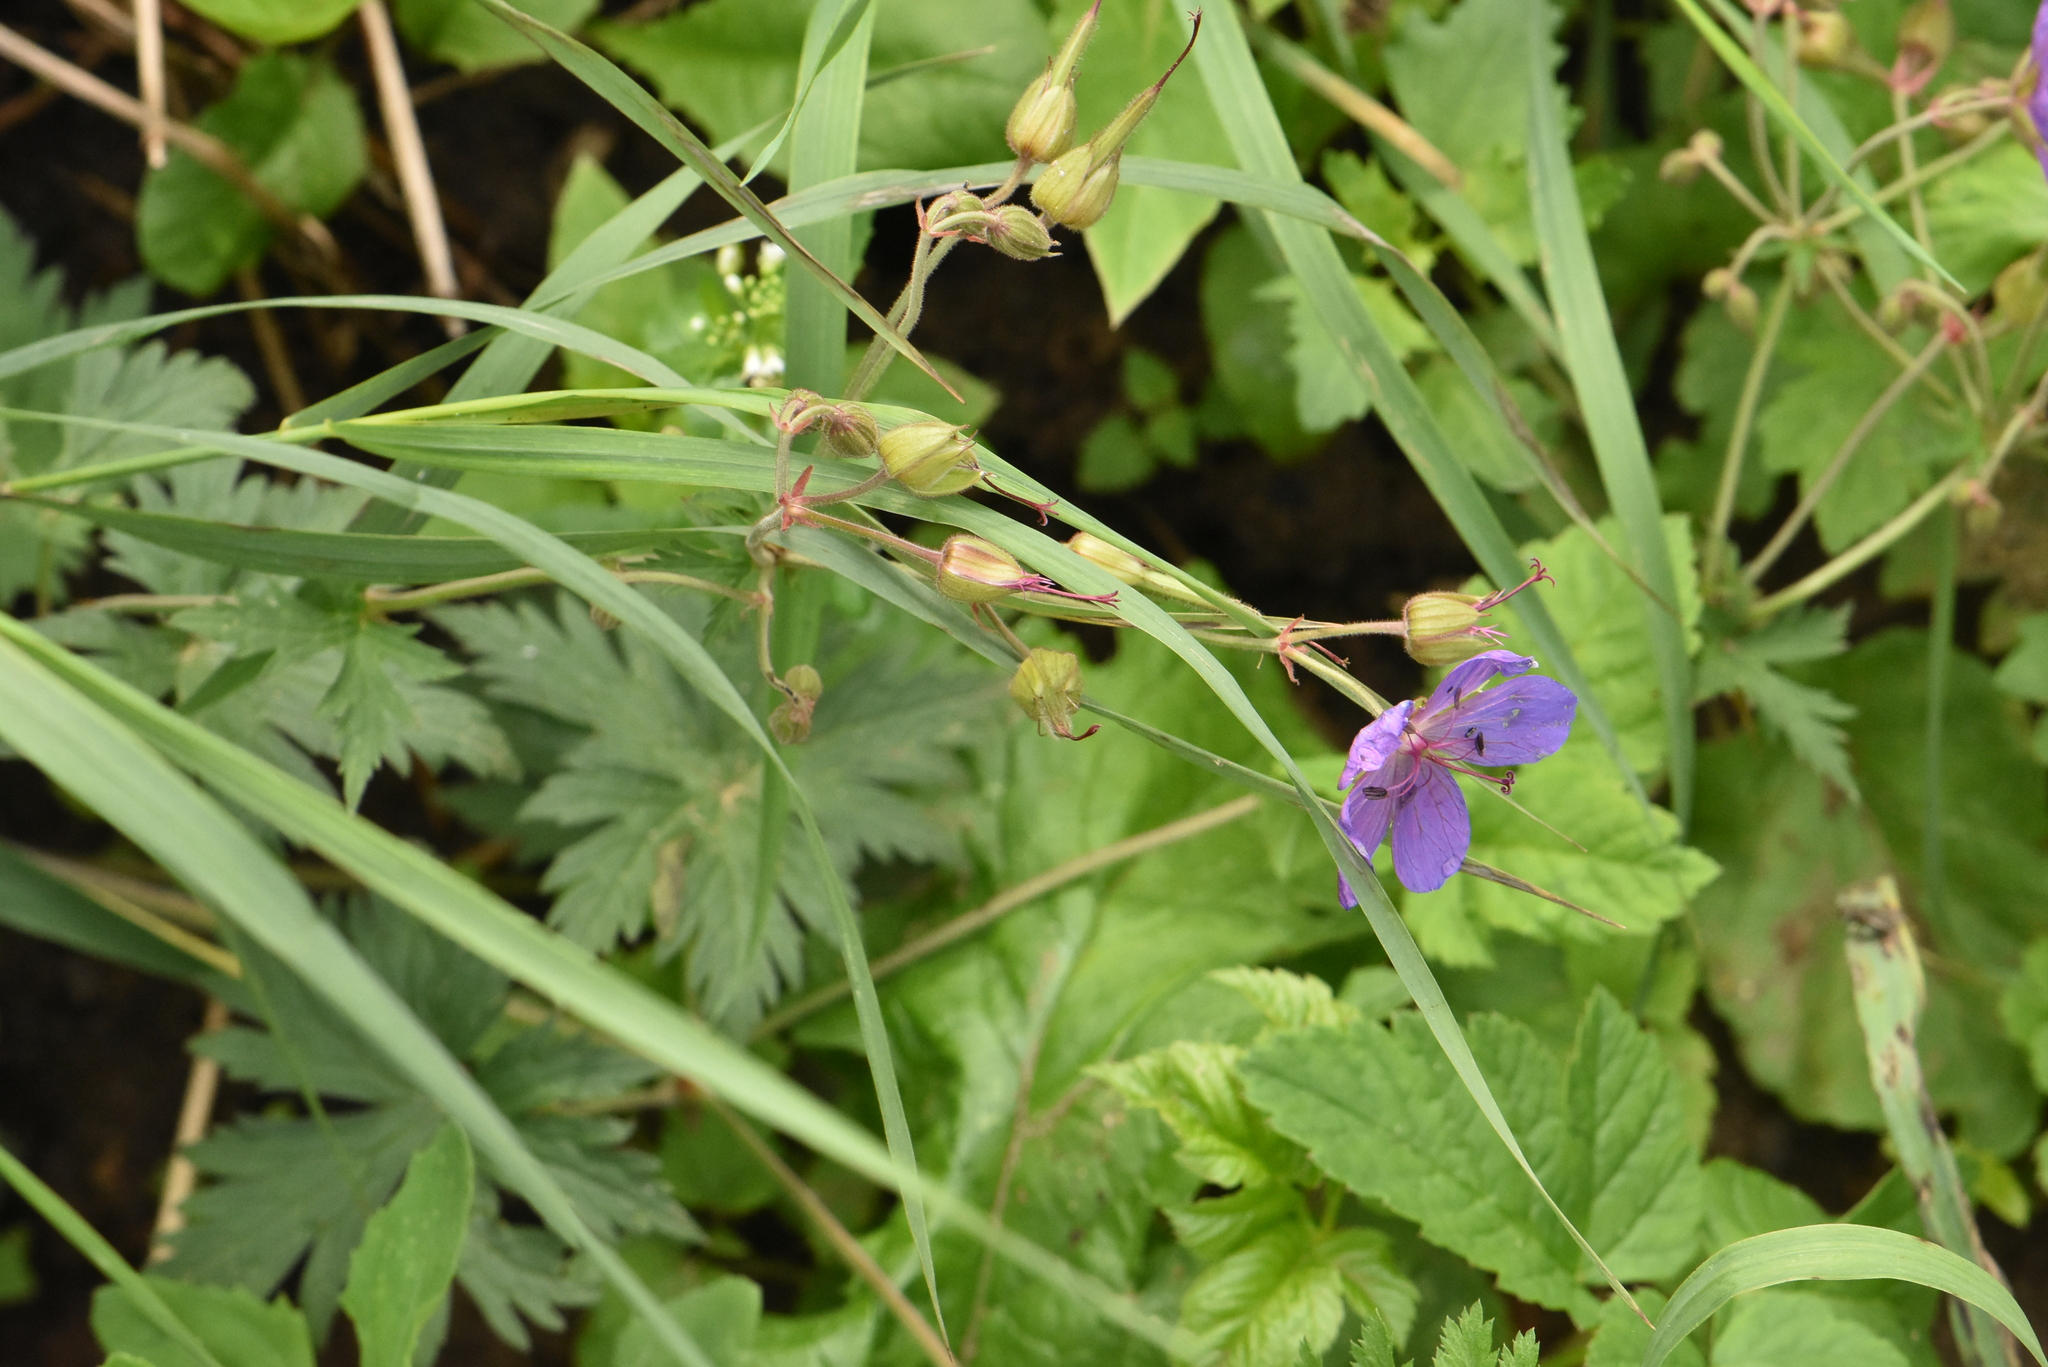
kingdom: Plantae
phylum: Tracheophyta
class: Magnoliopsida
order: Geraniales
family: Geraniaceae
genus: Geranium
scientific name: Geranium pratense
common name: Meadow crane's-bill
